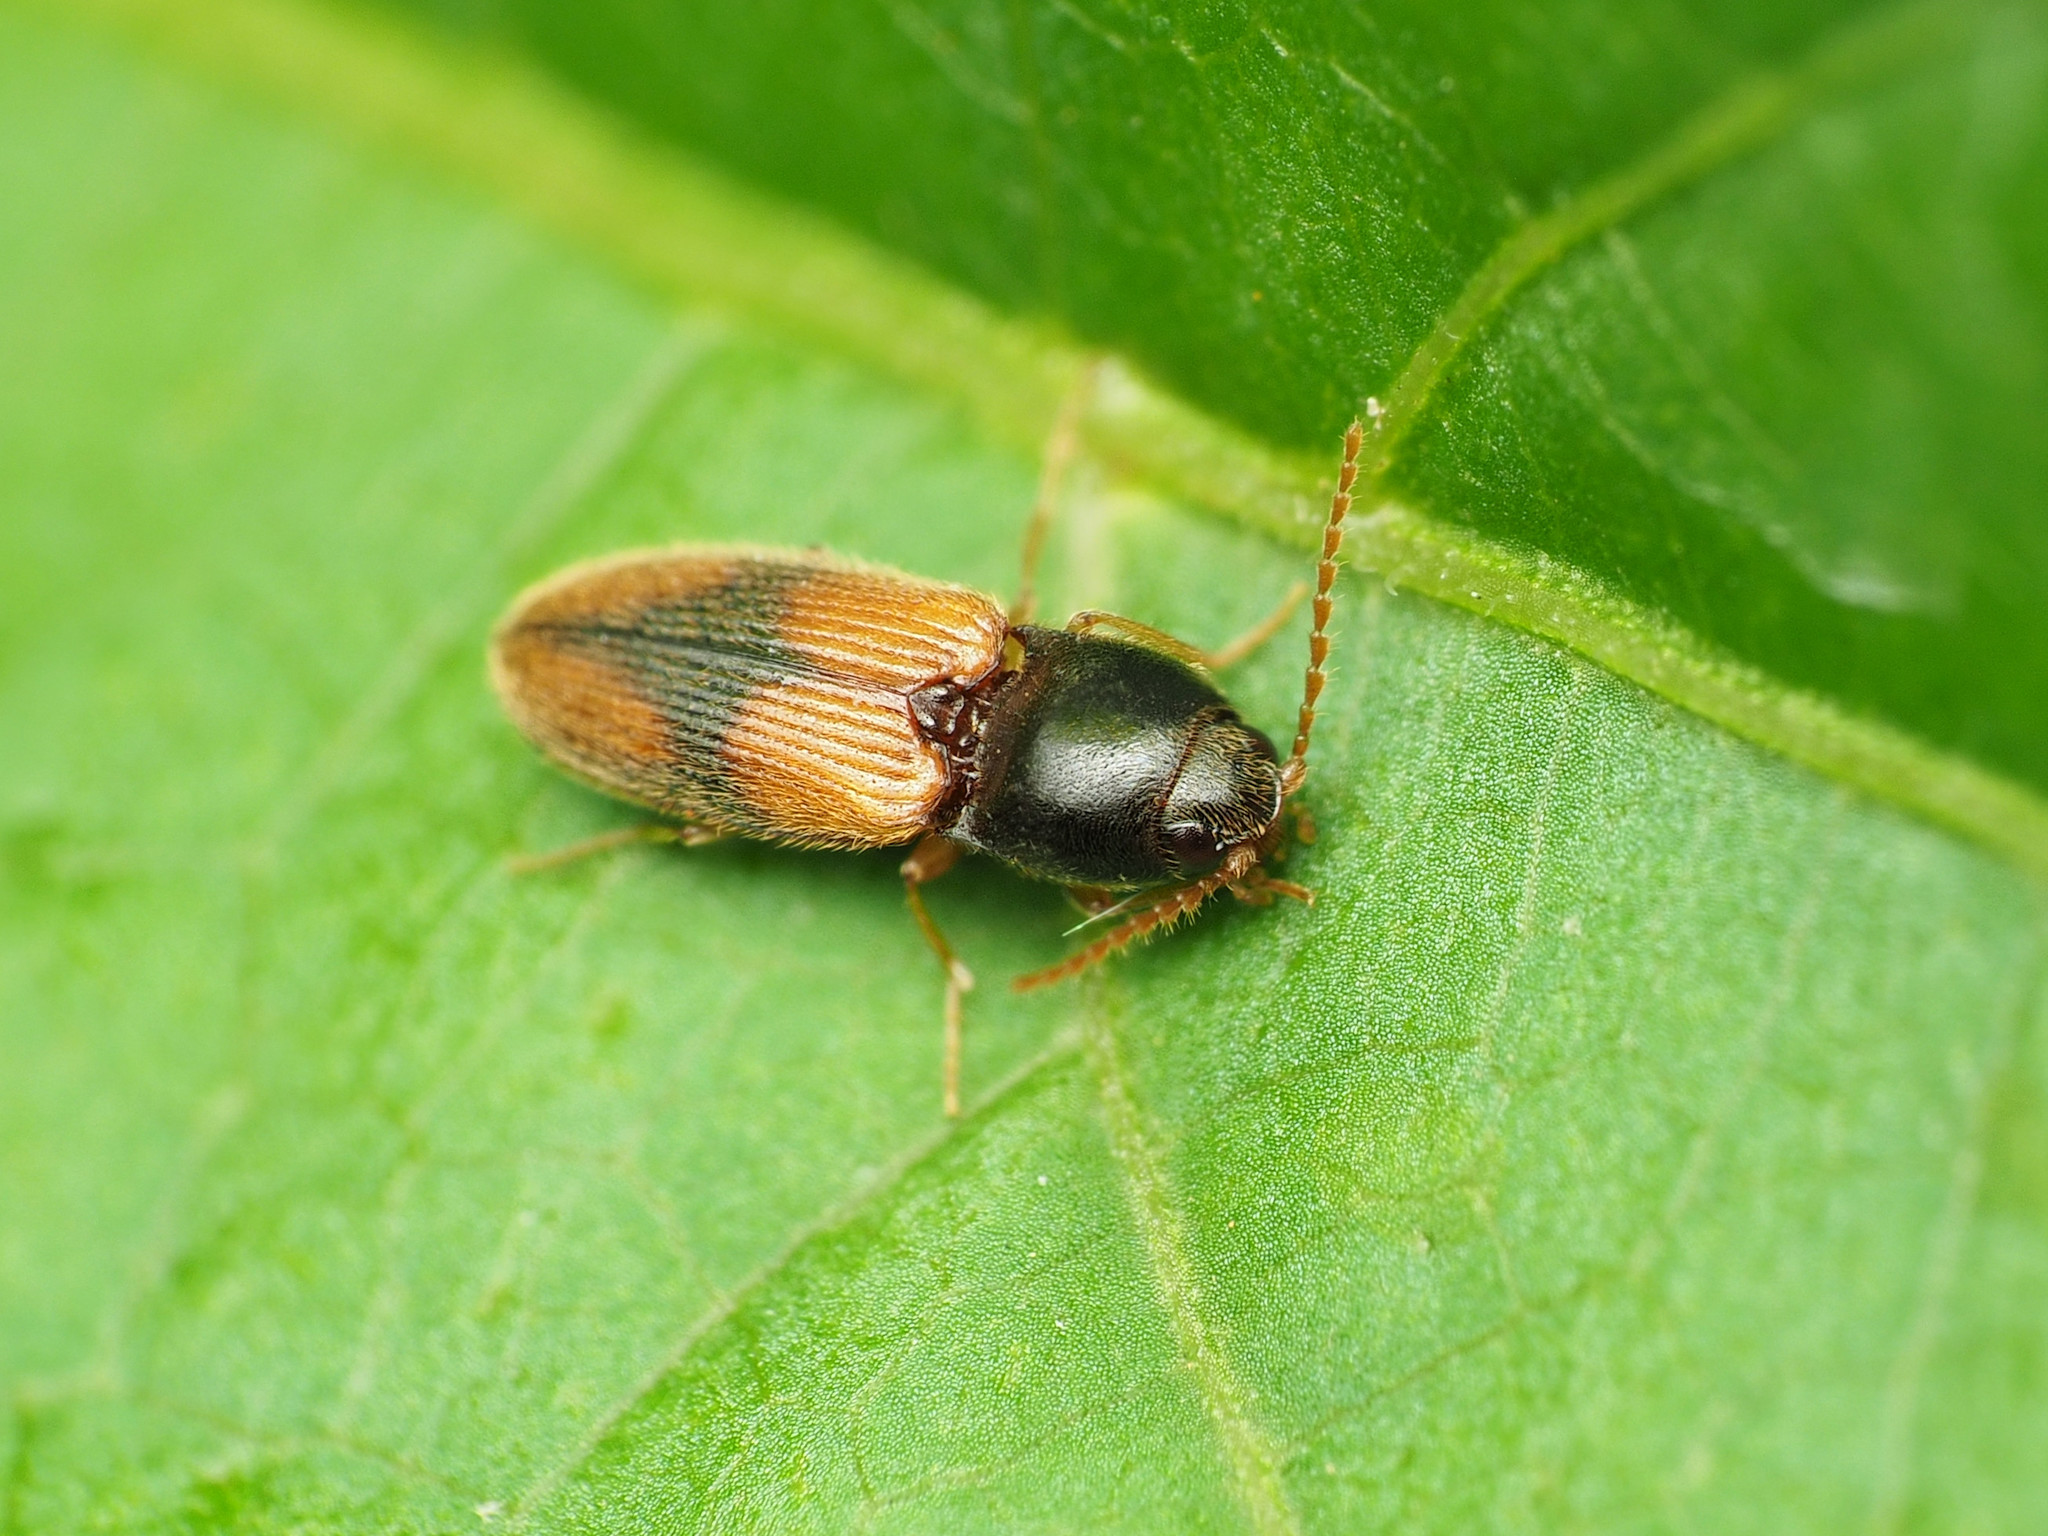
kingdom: Animalia
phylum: Arthropoda
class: Insecta
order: Coleoptera
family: Elateridae
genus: Horistonotus
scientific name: Horistonotus curiatus
